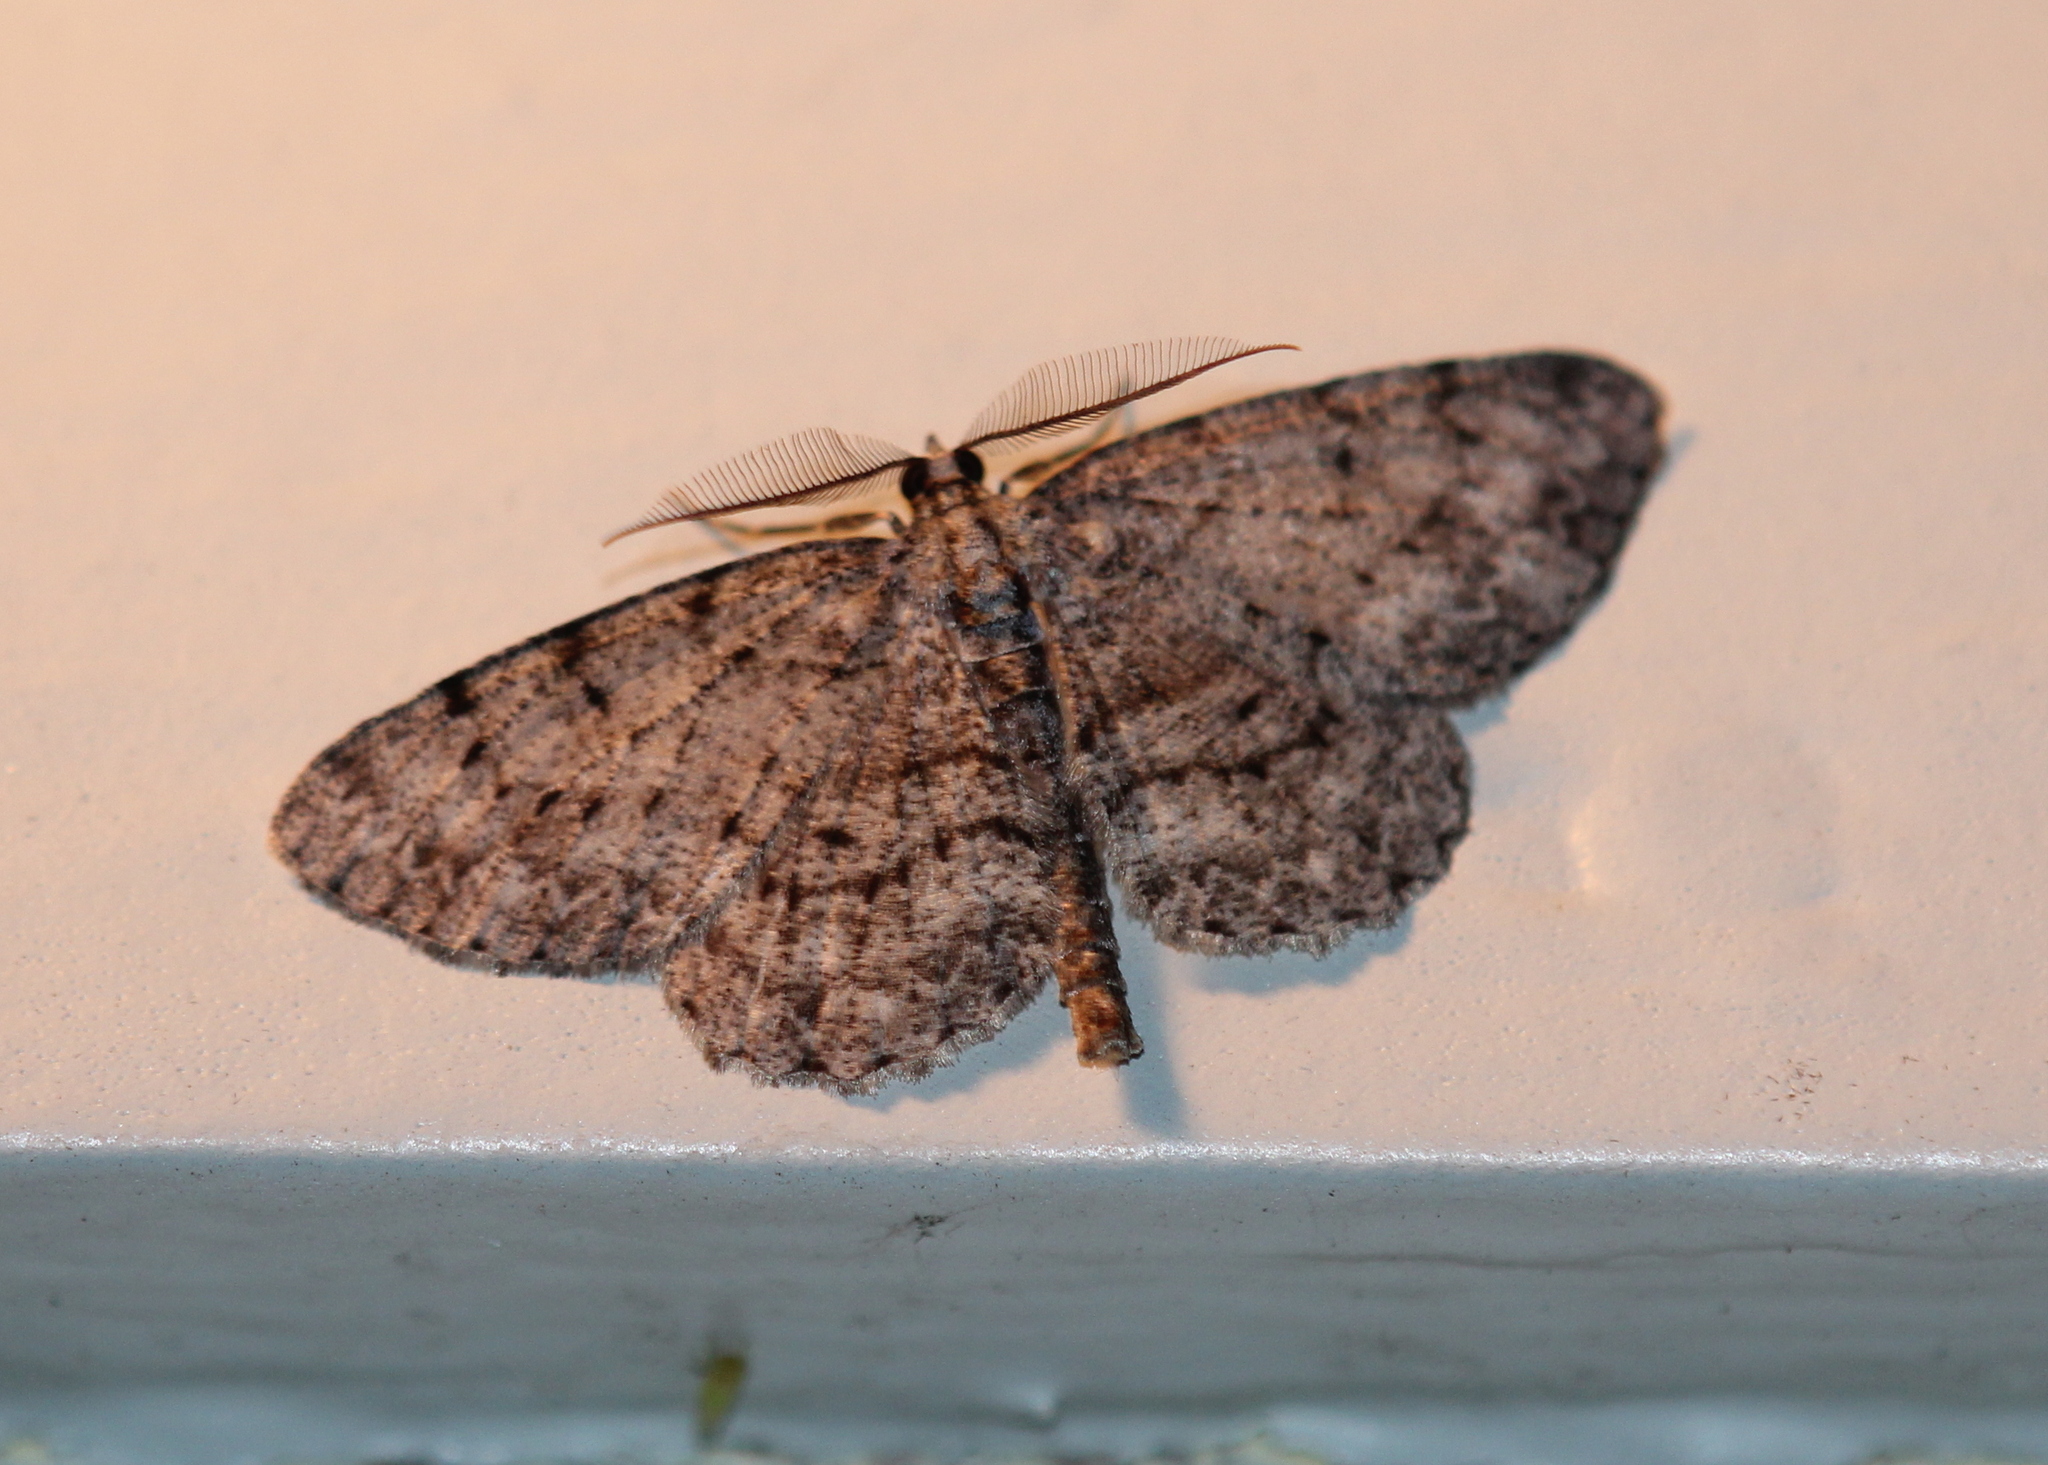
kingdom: Animalia
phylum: Arthropoda
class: Insecta
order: Lepidoptera
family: Geometridae
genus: Protoboarmia
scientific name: Protoboarmia porcelaria
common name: Porcelain gray
